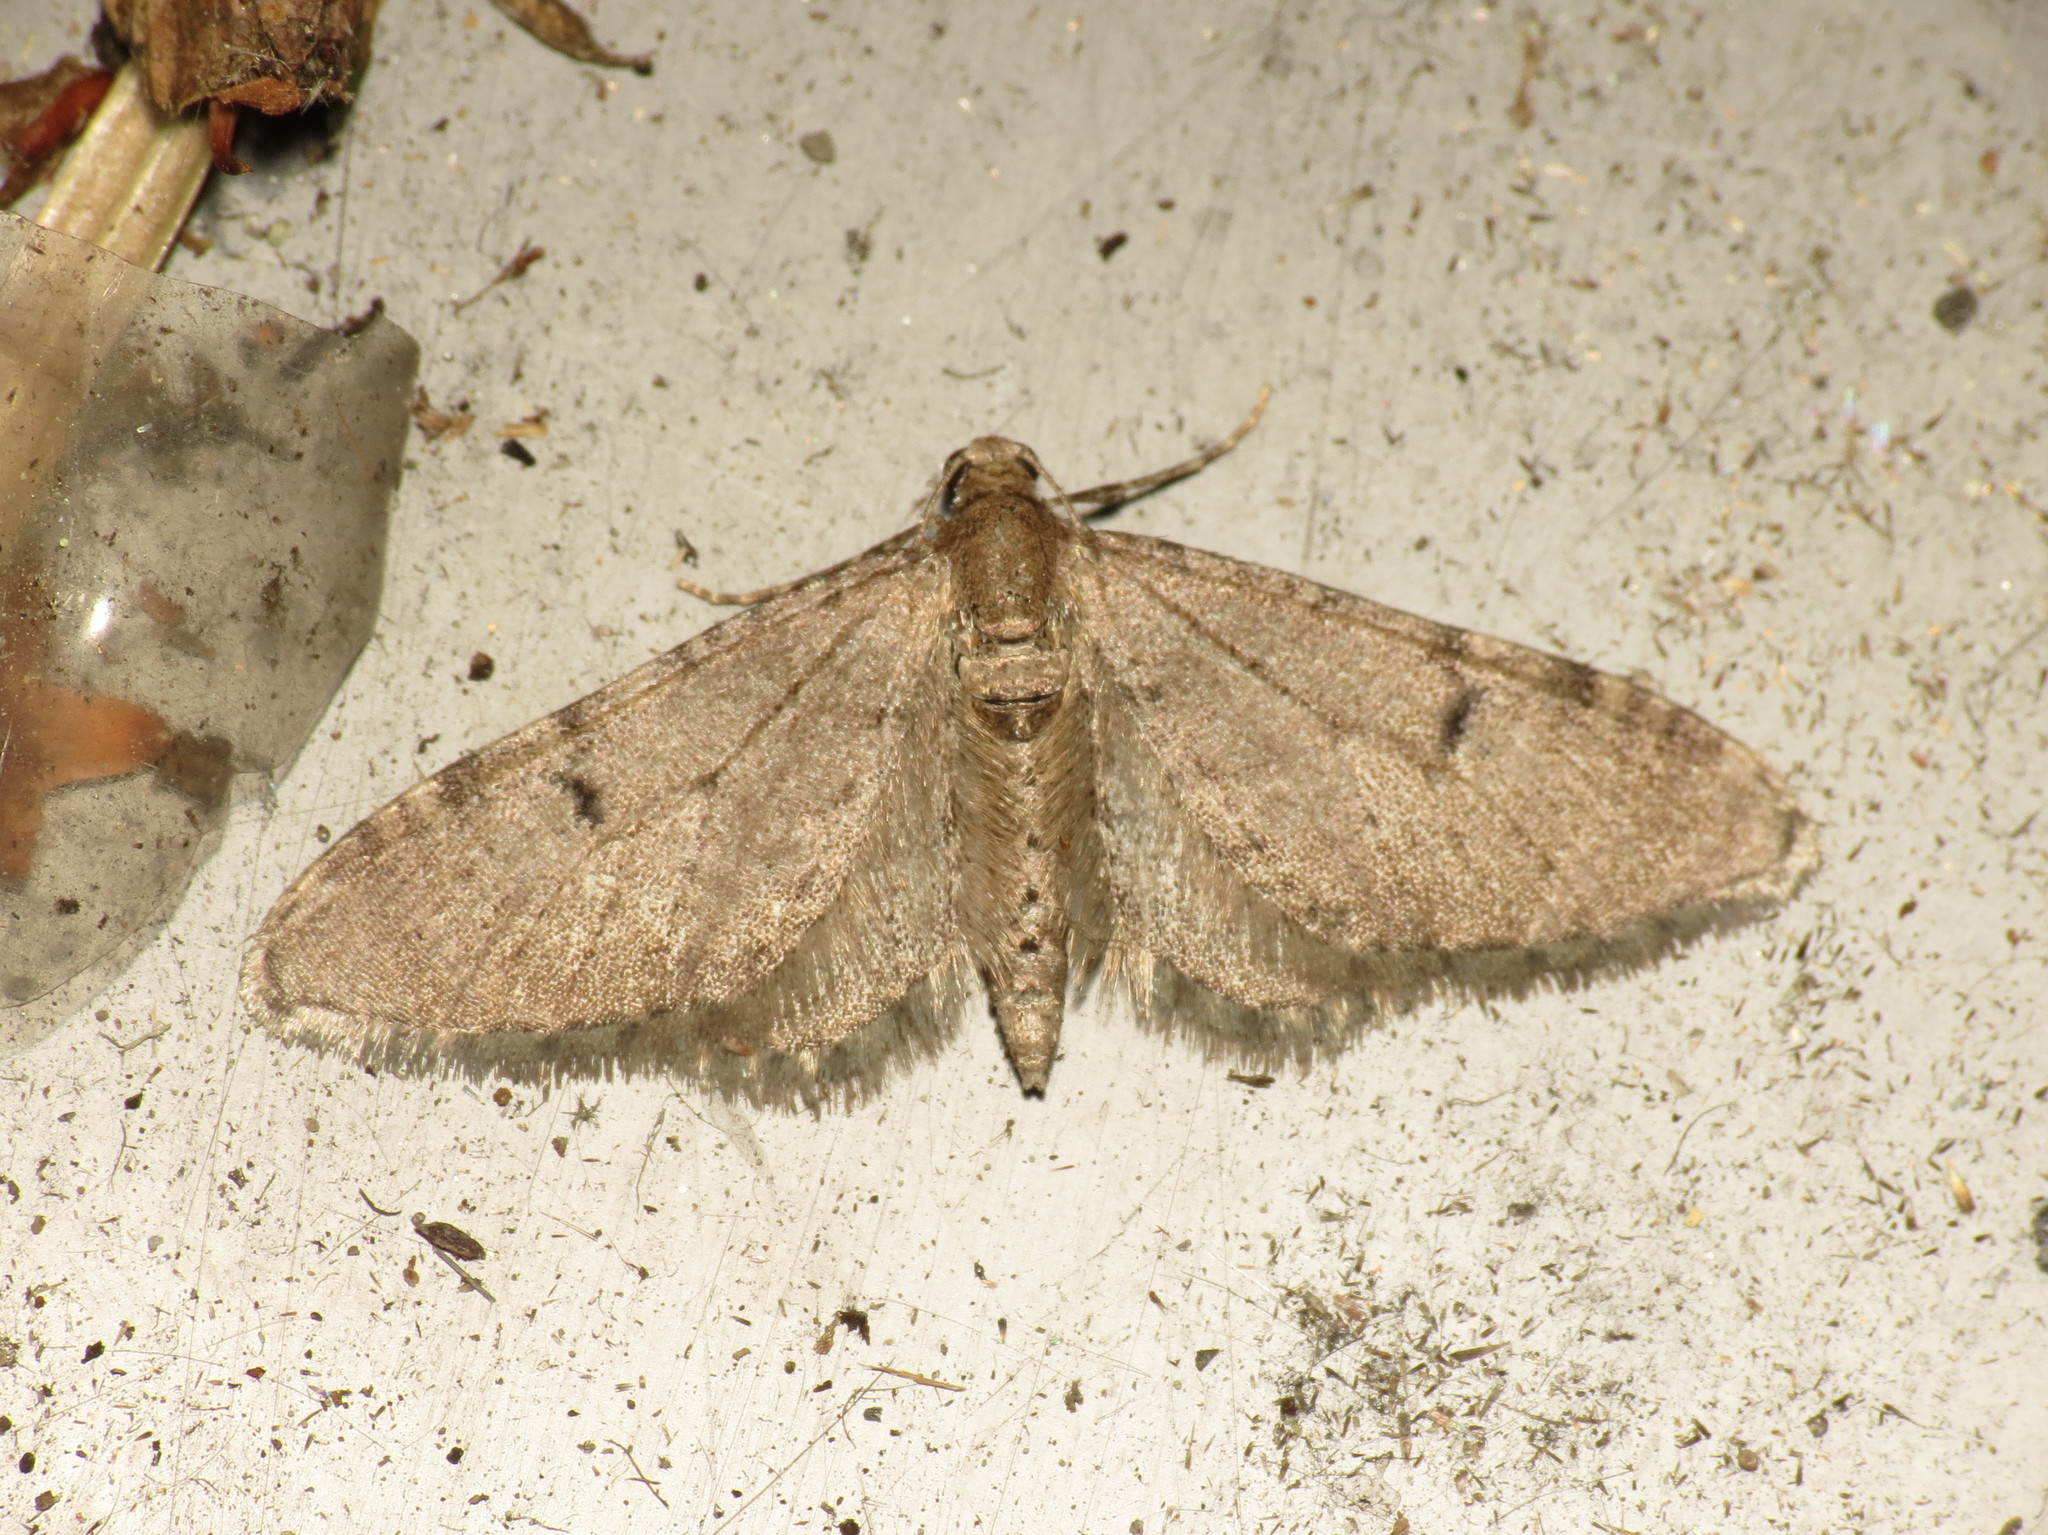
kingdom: Animalia
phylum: Arthropoda
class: Insecta
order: Lepidoptera
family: Geometridae
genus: Eupithecia
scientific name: Eupithecia indigata
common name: Ochreous pug
